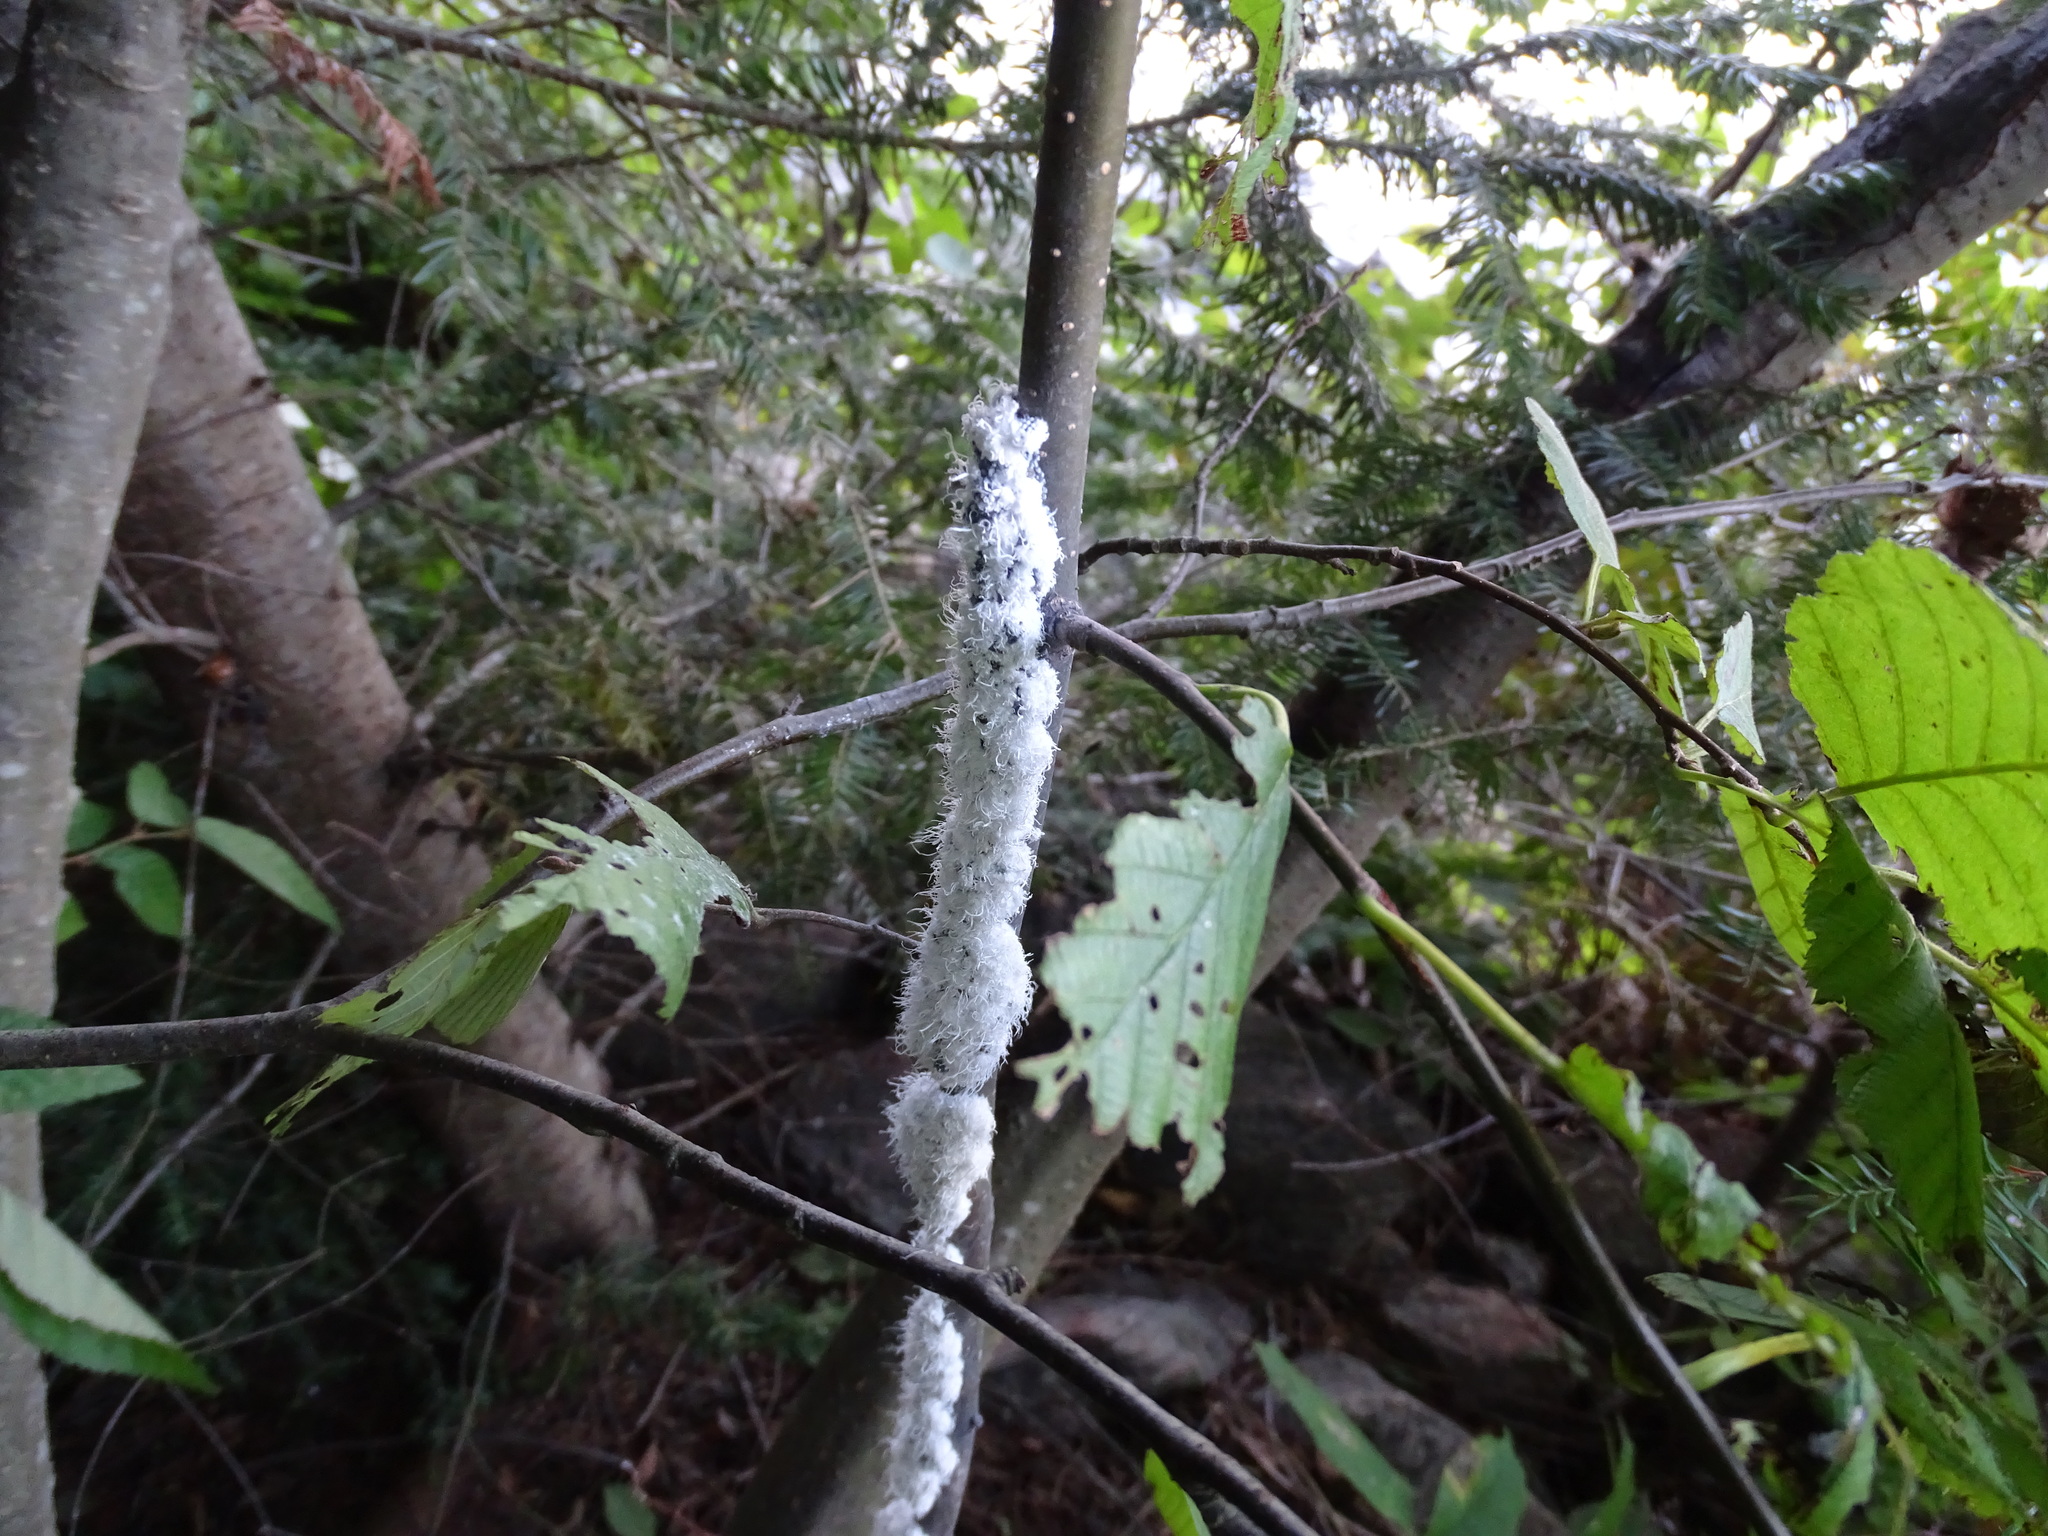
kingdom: Animalia
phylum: Arthropoda
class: Insecta
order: Hemiptera
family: Aphididae
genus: Prociphilus
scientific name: Prociphilus tessellatus
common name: Woolly alder aphid
